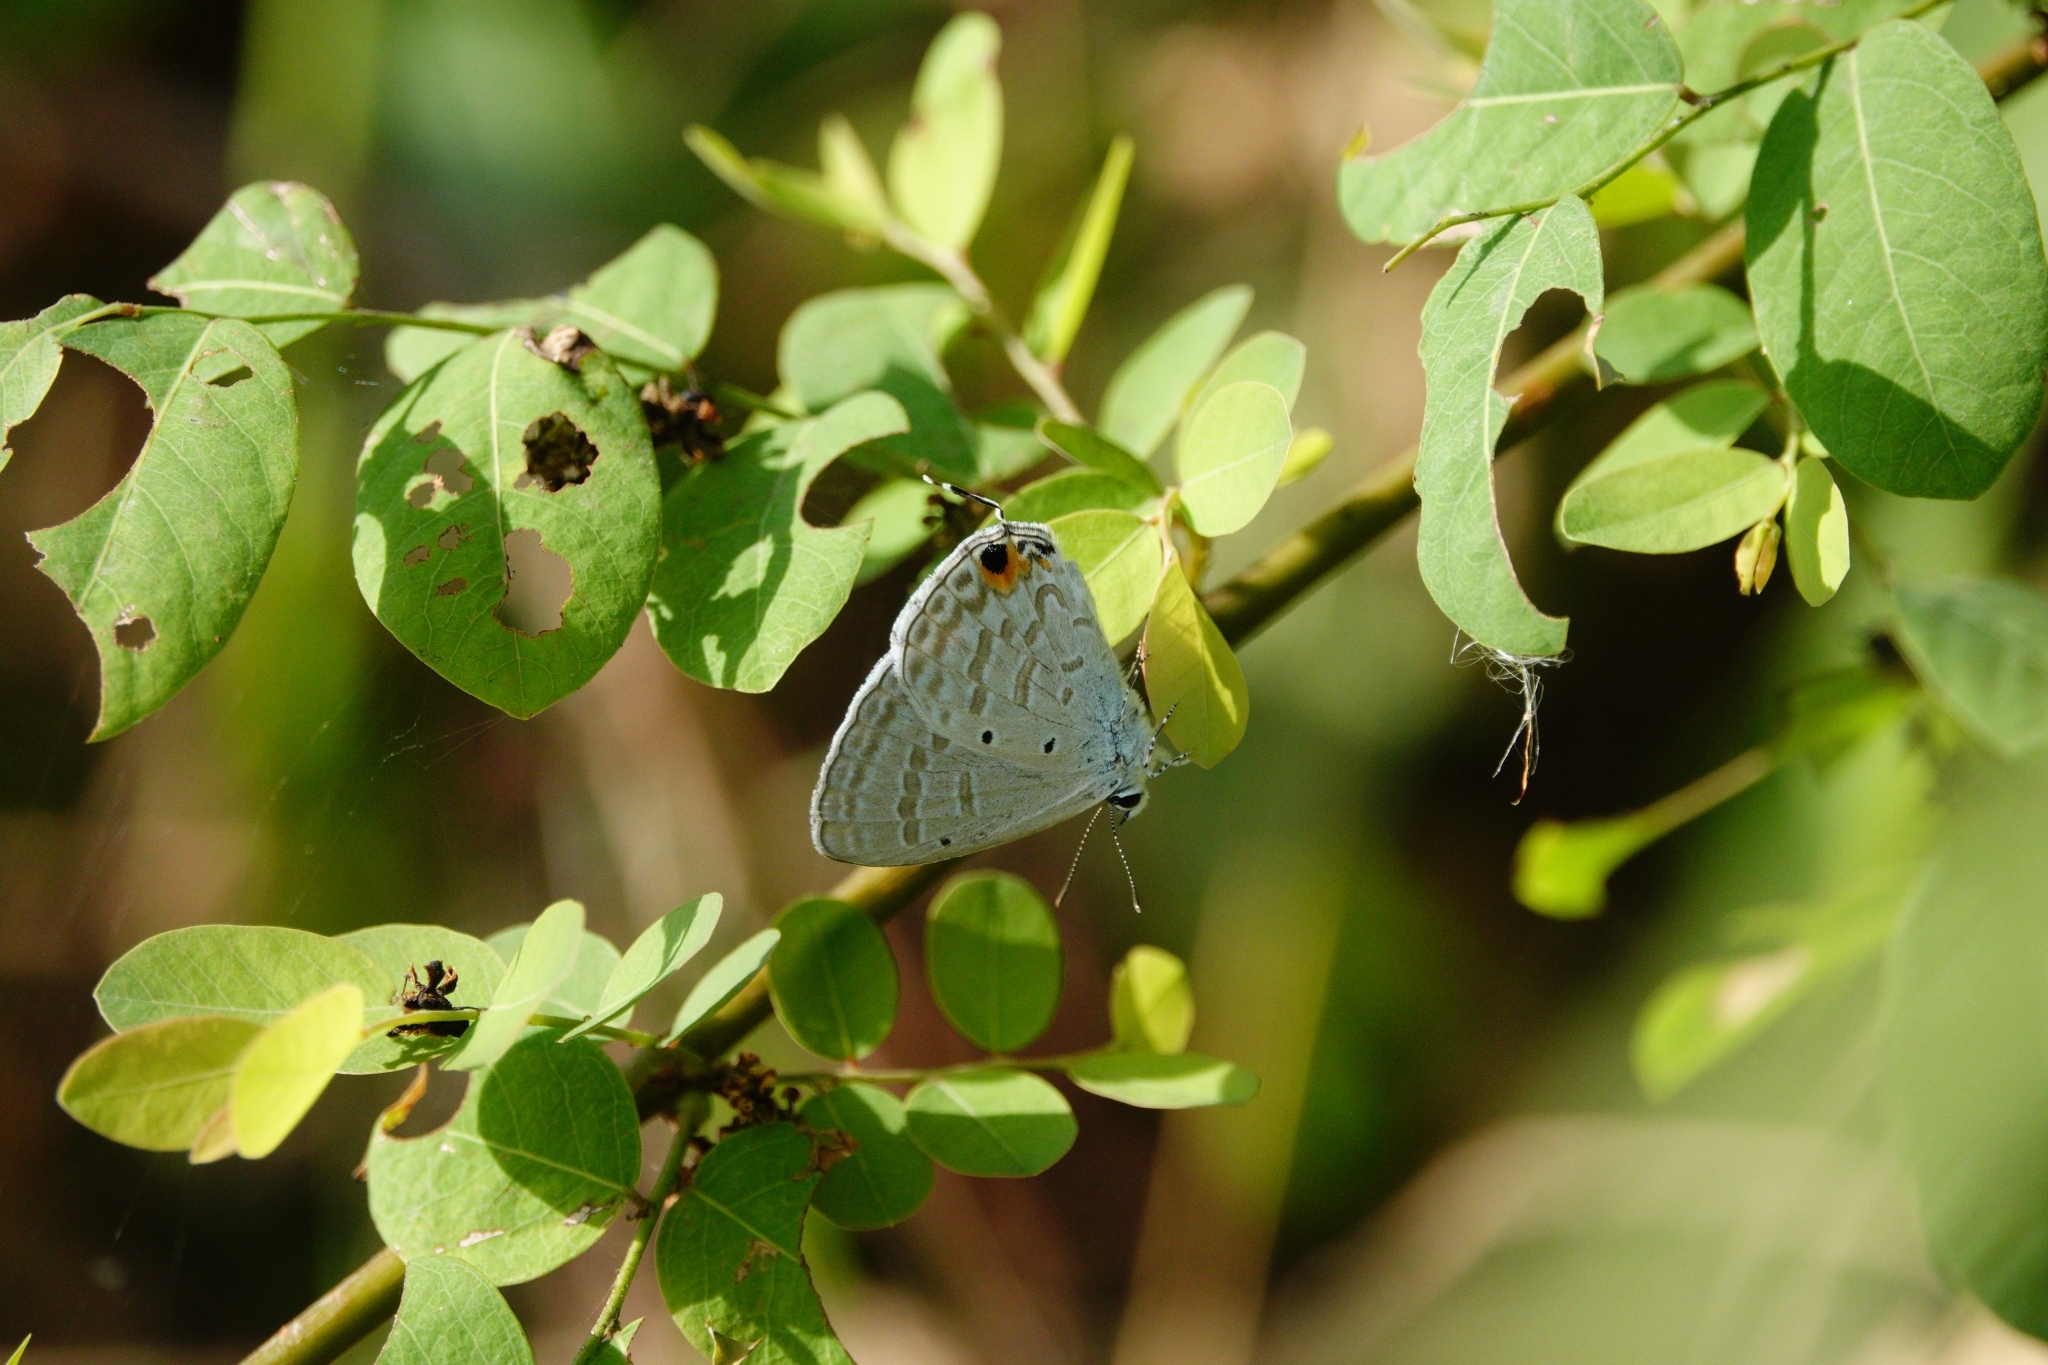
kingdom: Animalia
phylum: Arthropoda
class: Insecta
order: Lepidoptera
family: Lycaenidae
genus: Catochrysops
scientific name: Catochrysops strabo
